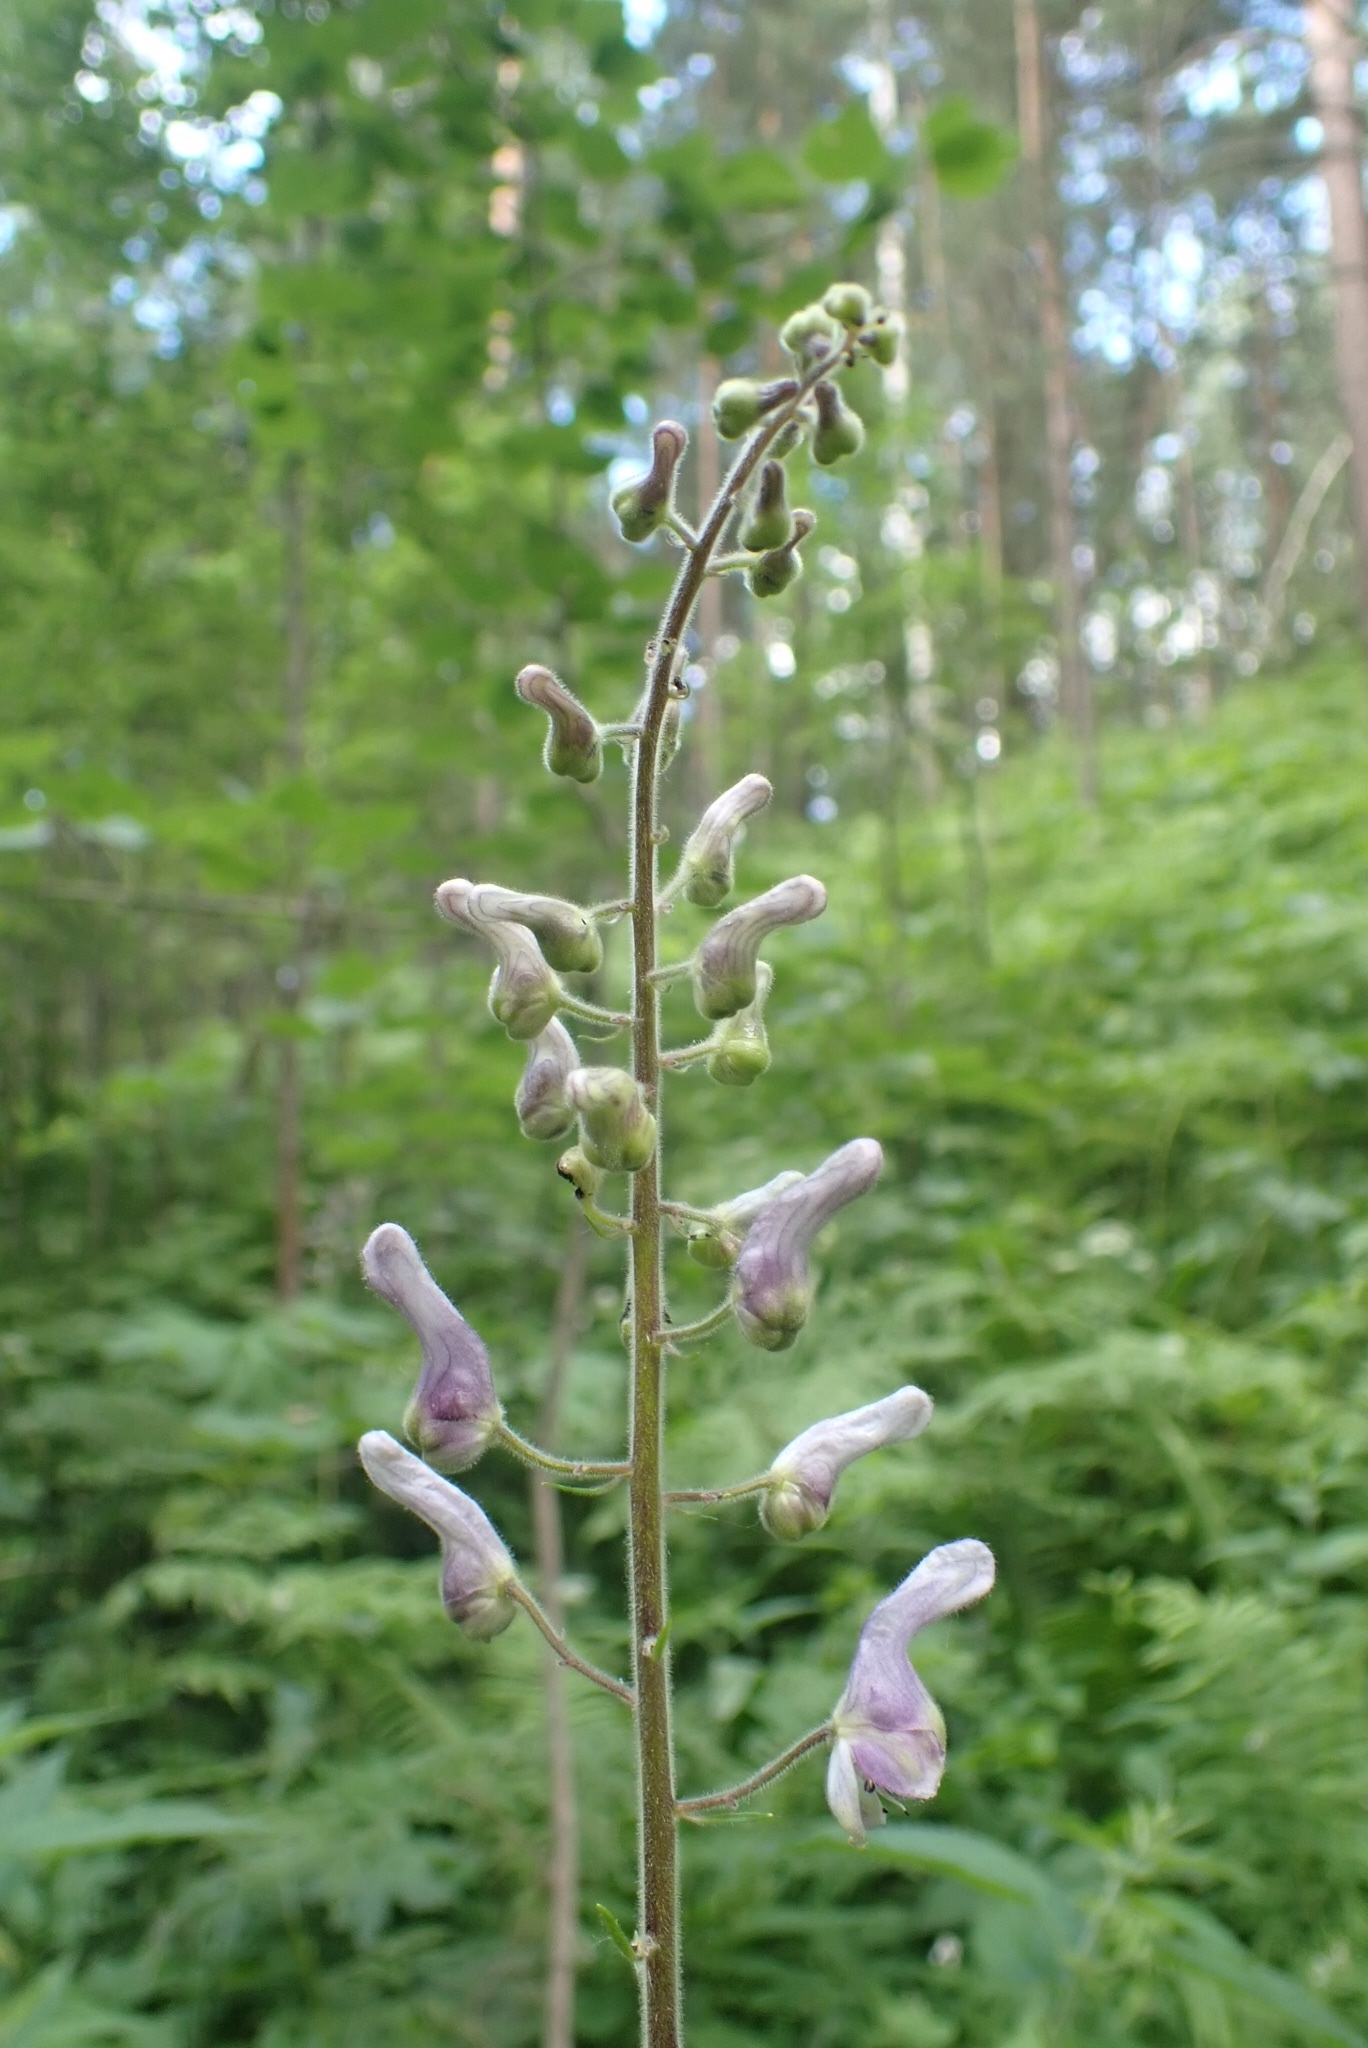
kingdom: Plantae
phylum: Tracheophyta
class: Magnoliopsida
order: Ranunculales
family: Ranunculaceae
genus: Aconitum
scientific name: Aconitum septentrionale
